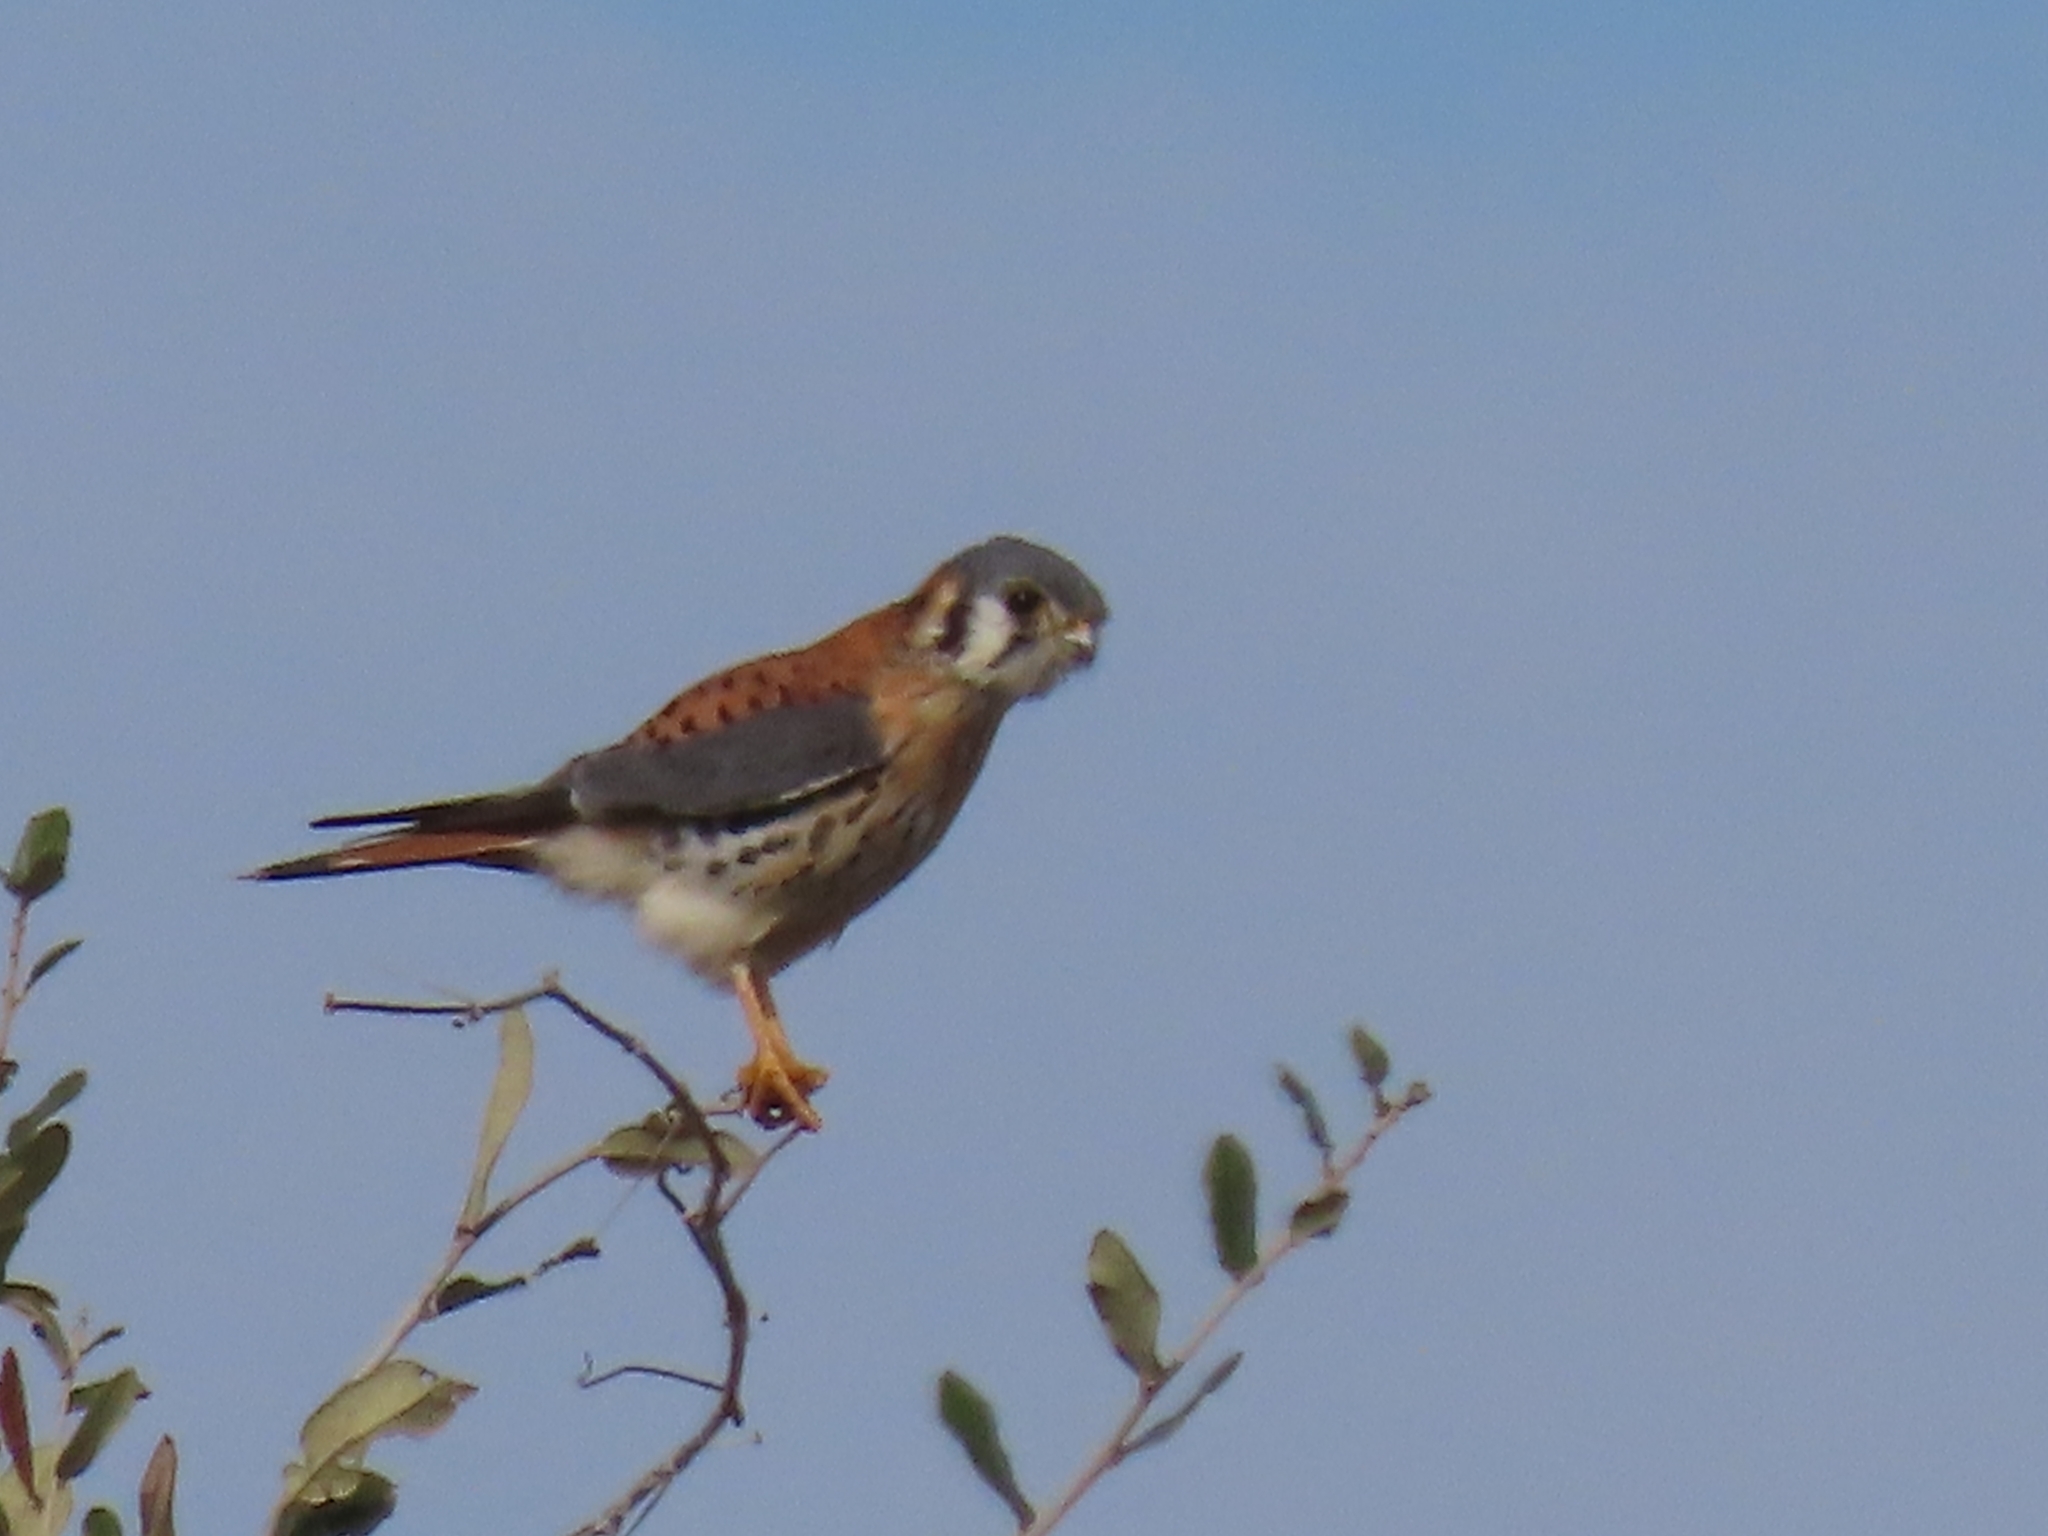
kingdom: Animalia
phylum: Chordata
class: Aves
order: Falconiformes
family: Falconidae
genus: Falco
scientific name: Falco sparverius
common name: American kestrel
